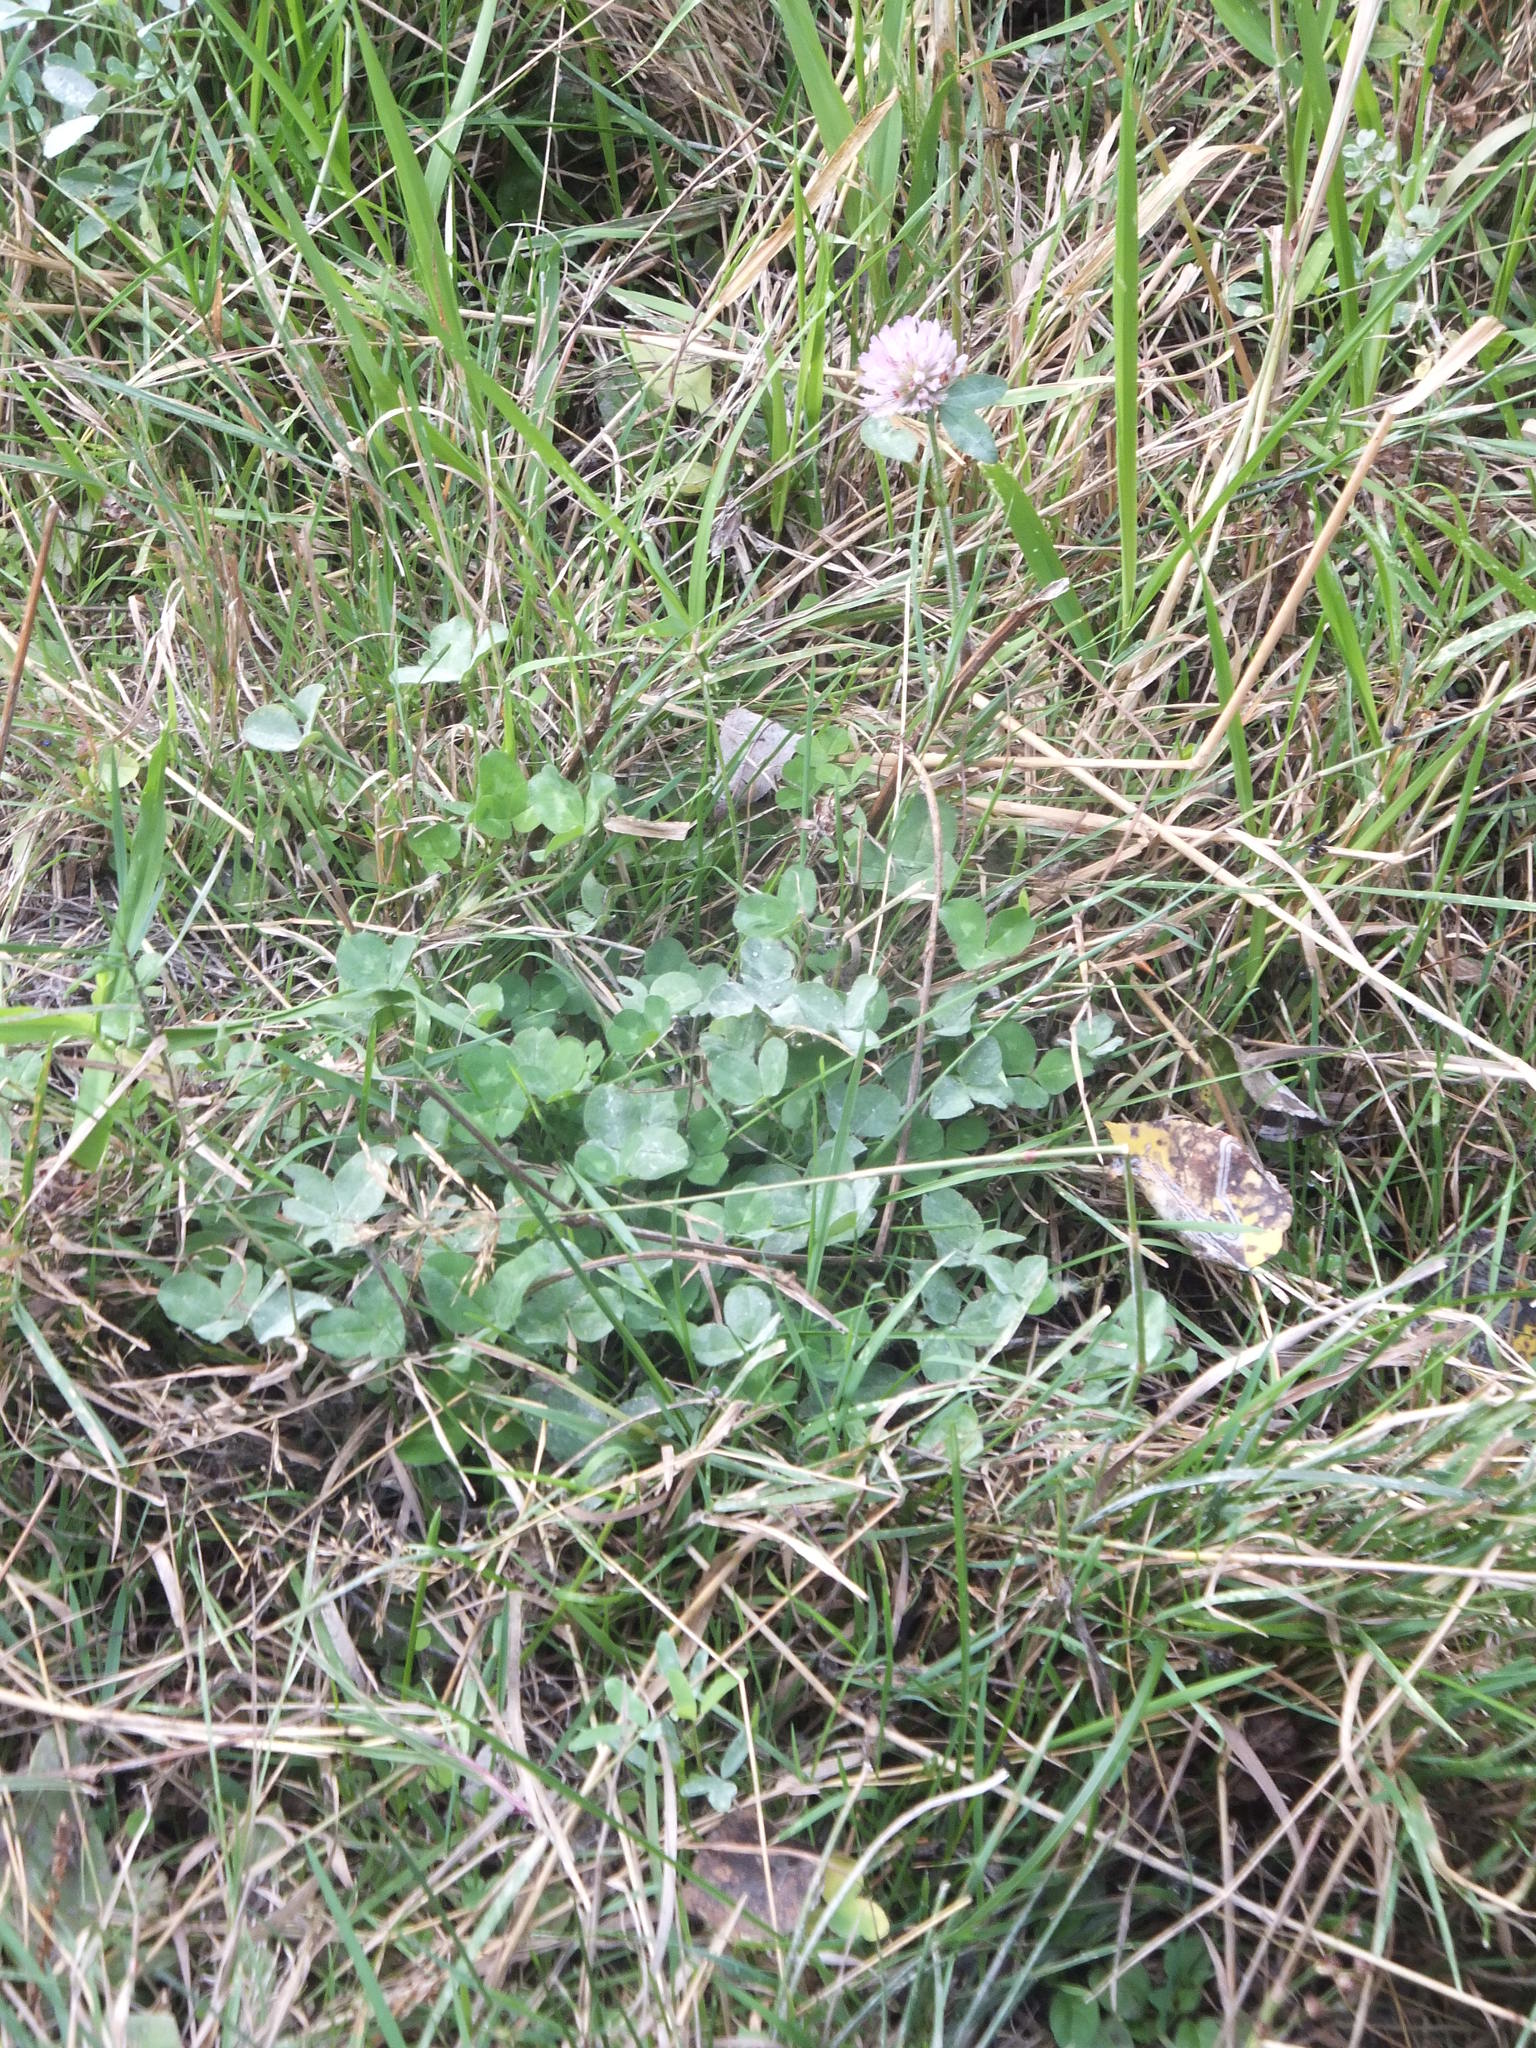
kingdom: Plantae
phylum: Tracheophyta
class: Magnoliopsida
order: Fabales
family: Fabaceae
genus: Trifolium
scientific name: Trifolium pratense
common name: Red clover
